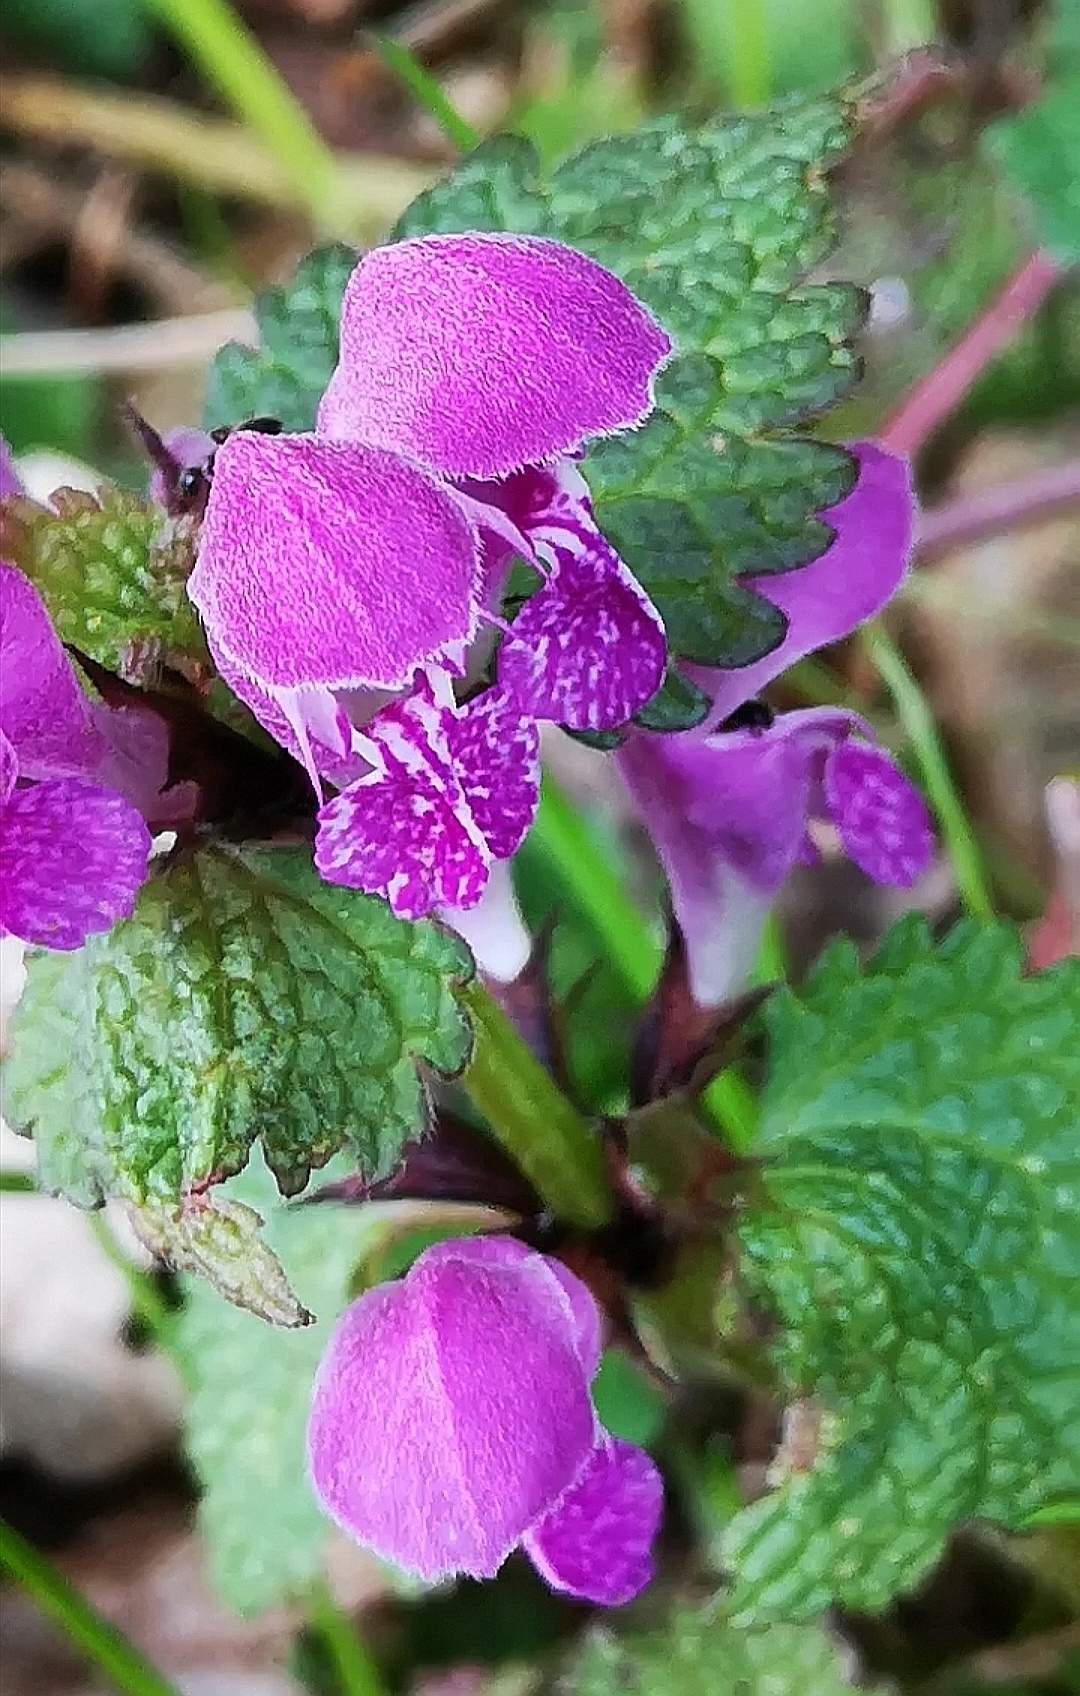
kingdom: Plantae
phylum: Tracheophyta
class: Magnoliopsida
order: Lamiales
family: Lamiaceae
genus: Lamium
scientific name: Lamium maculatum
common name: Spotted dead-nettle
